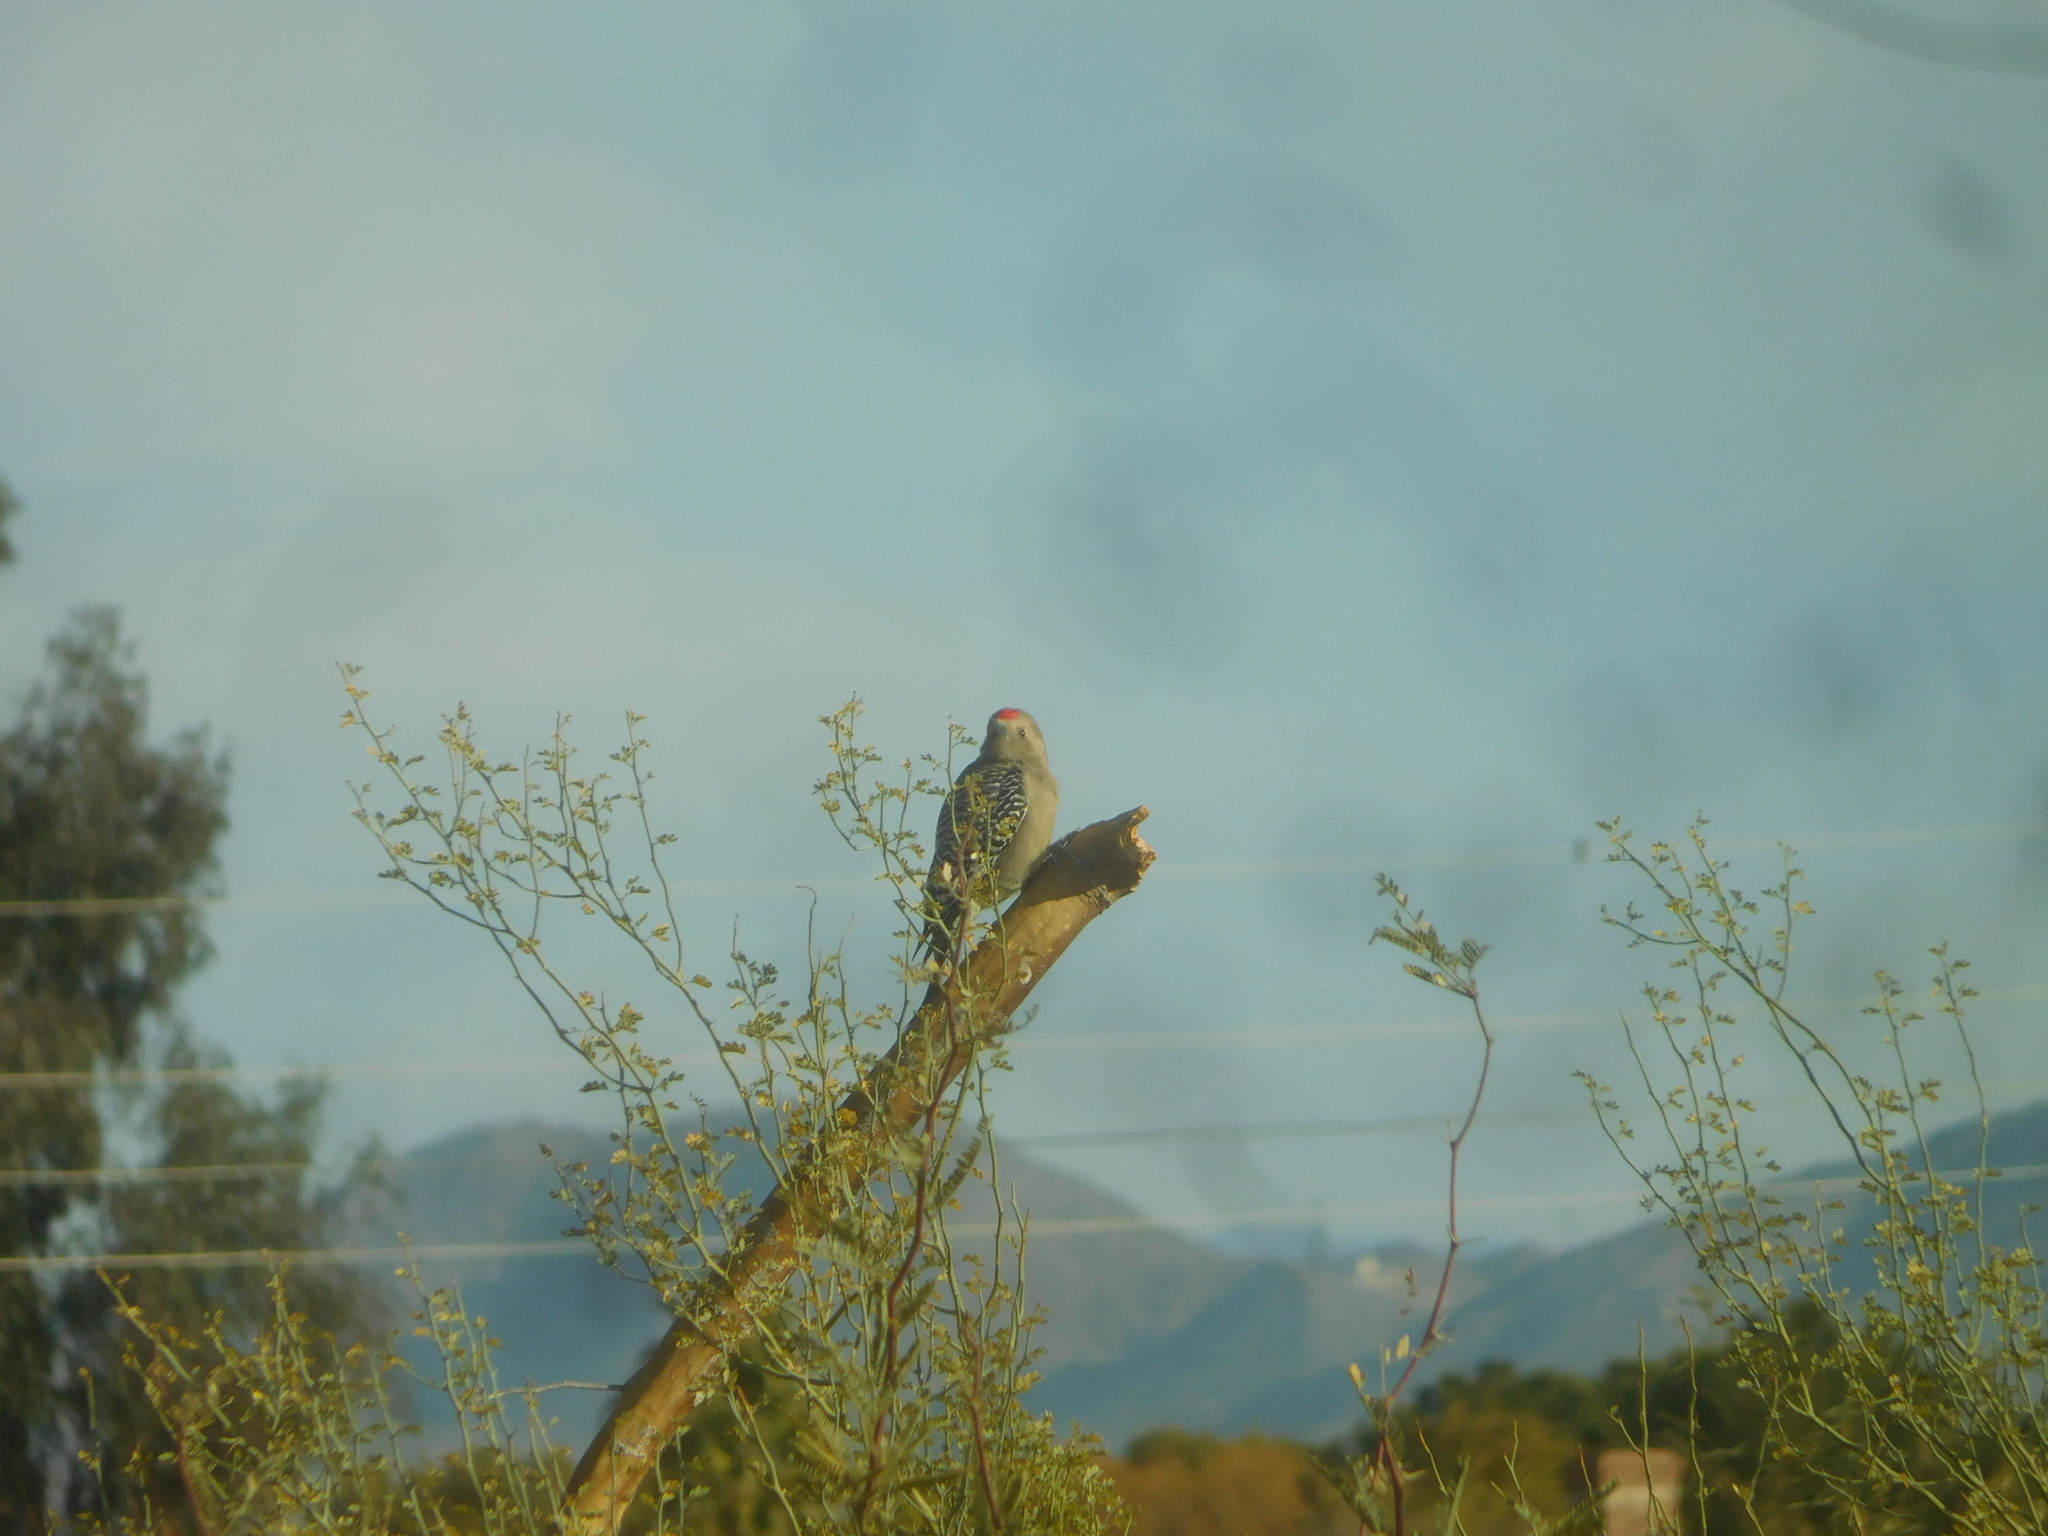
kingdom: Animalia
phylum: Chordata
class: Aves
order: Piciformes
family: Picidae
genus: Melanerpes
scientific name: Melanerpes uropygialis
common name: Gila woodpecker
